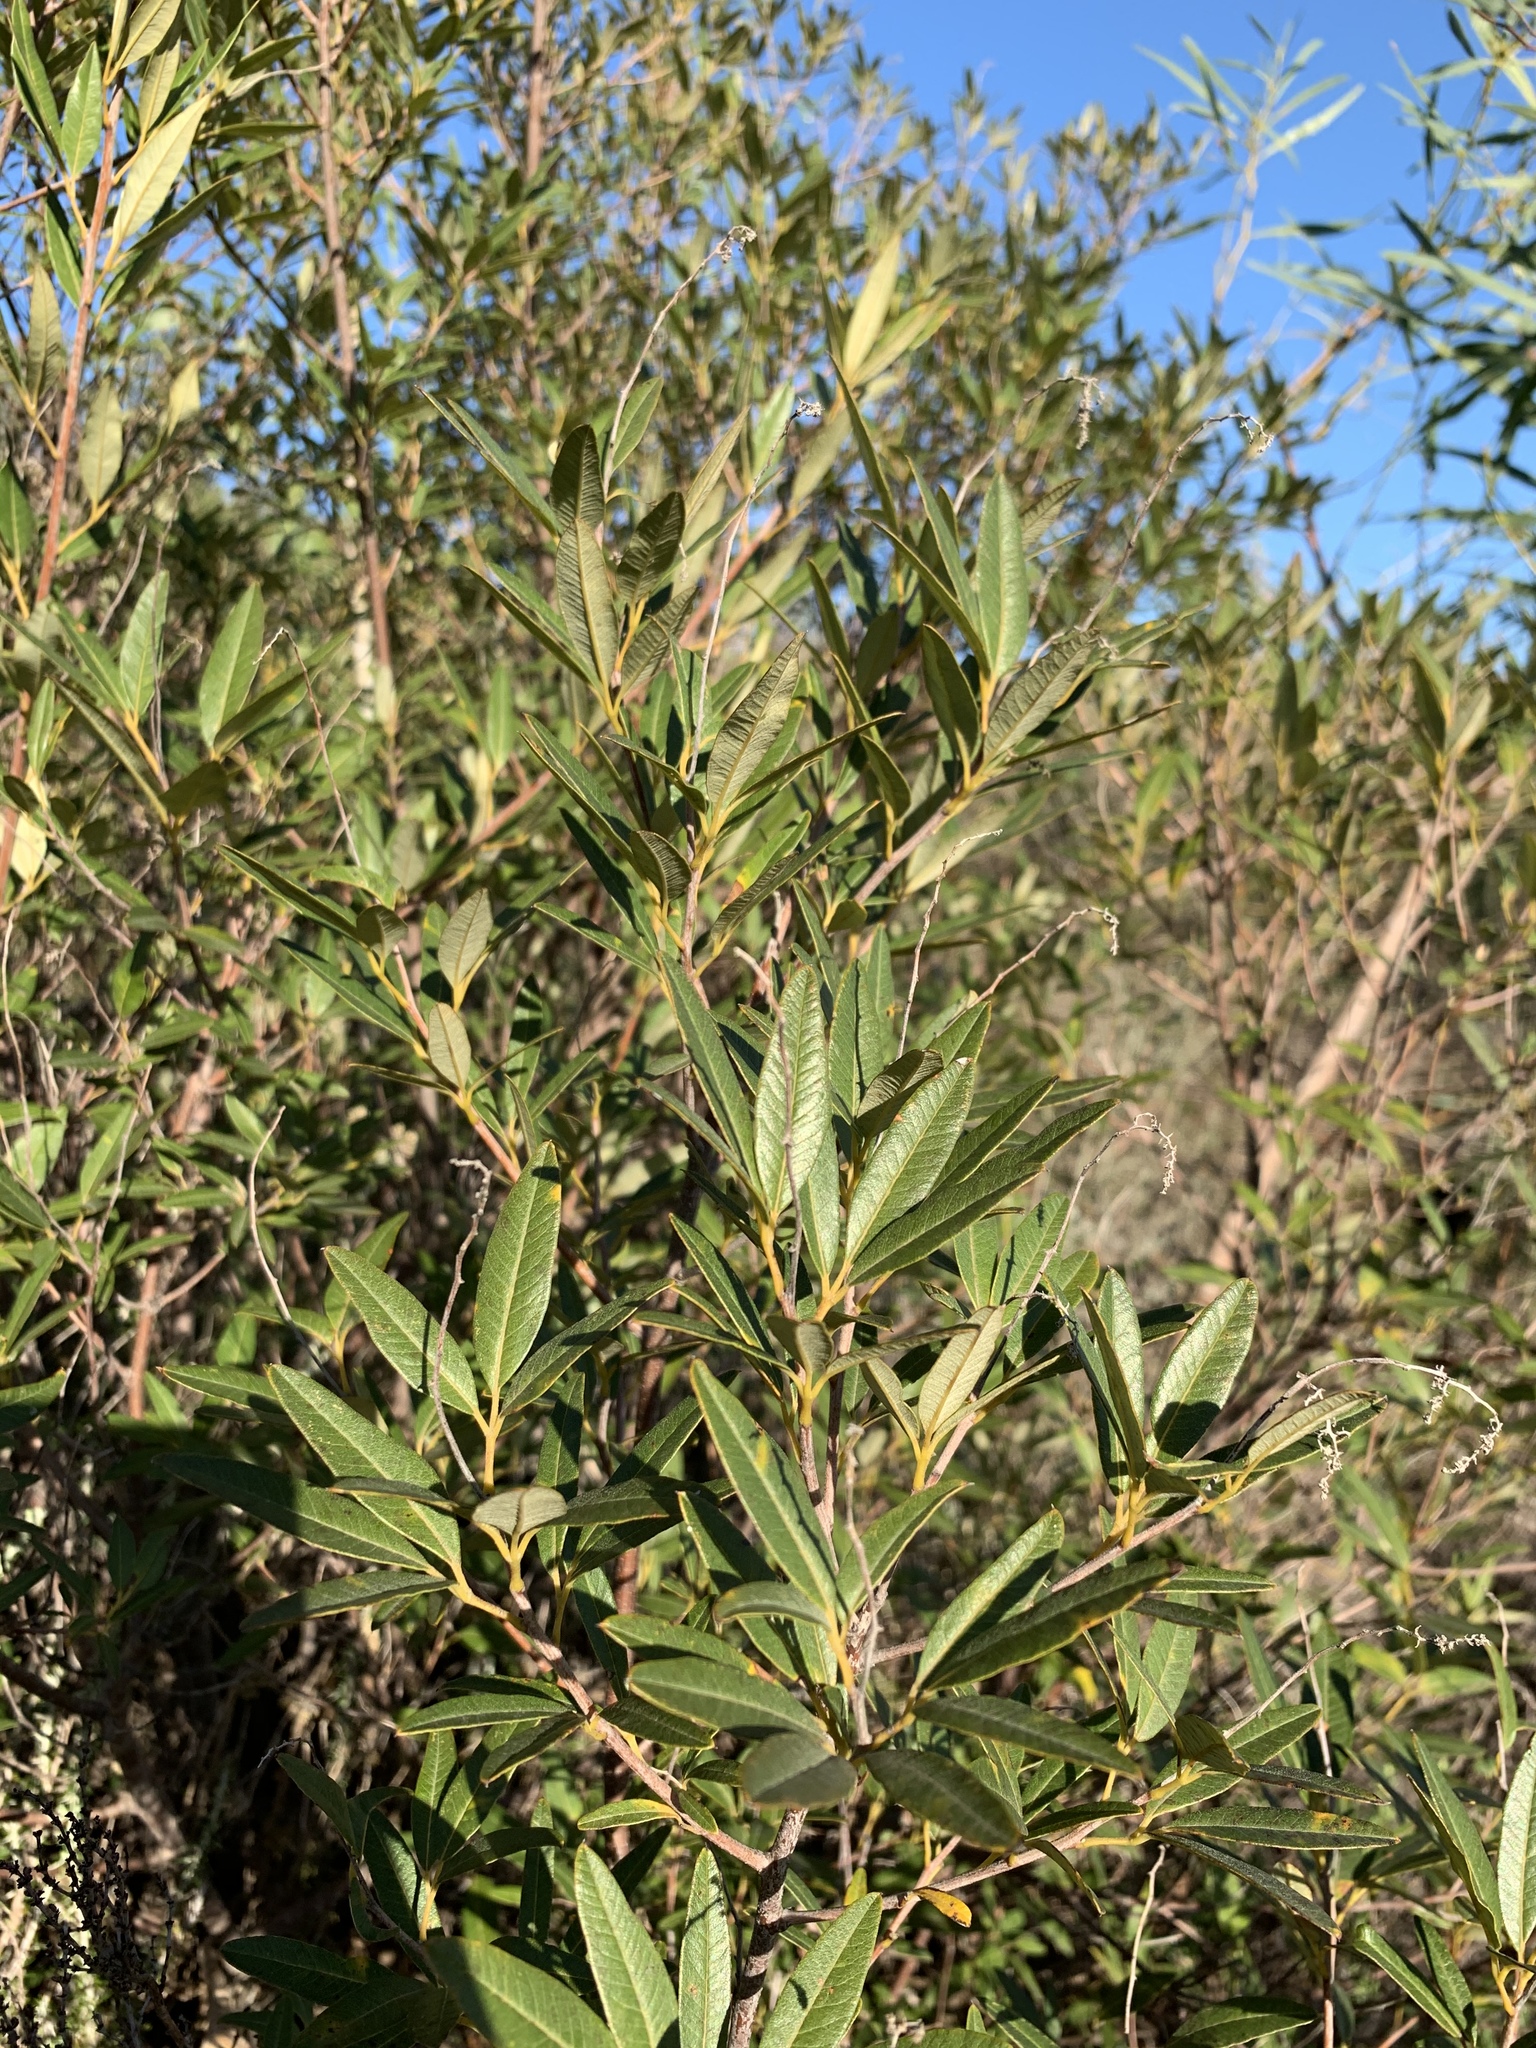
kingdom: Plantae
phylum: Tracheophyta
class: Magnoliopsida
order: Sapindales
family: Anacardiaceae
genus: Searsia
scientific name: Searsia angustifolia
